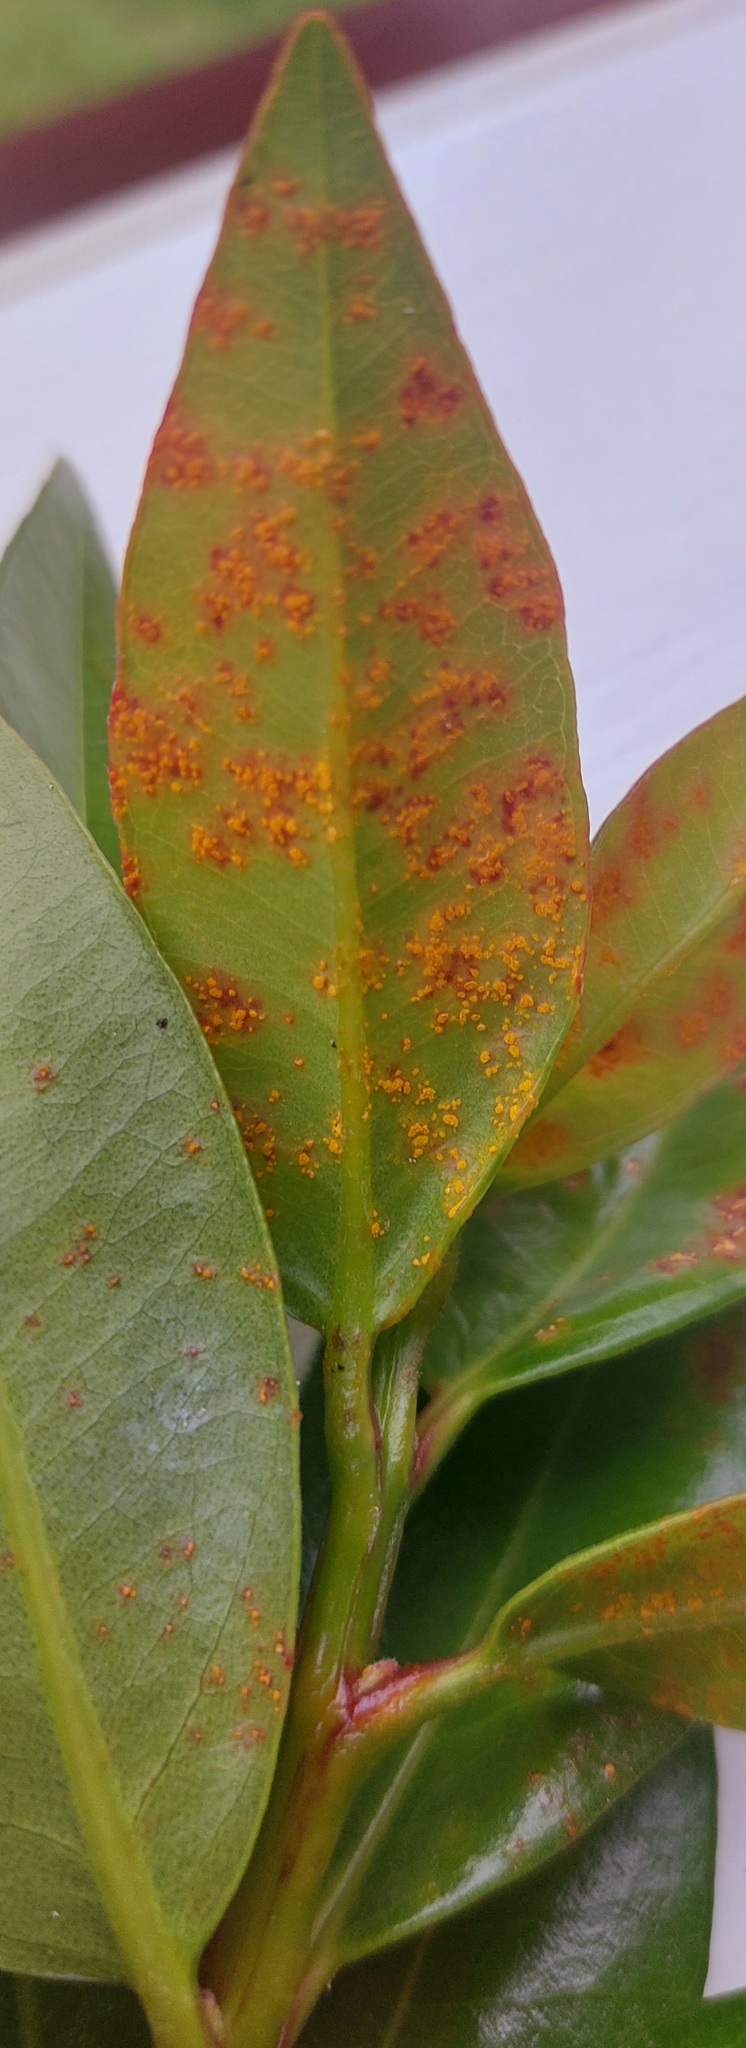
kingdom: Fungi
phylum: Basidiomycota
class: Pucciniomycetes
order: Pucciniales
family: Sphaerophragmiaceae
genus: Austropuccinia
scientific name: Austropuccinia psidii
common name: Myrtle rust
